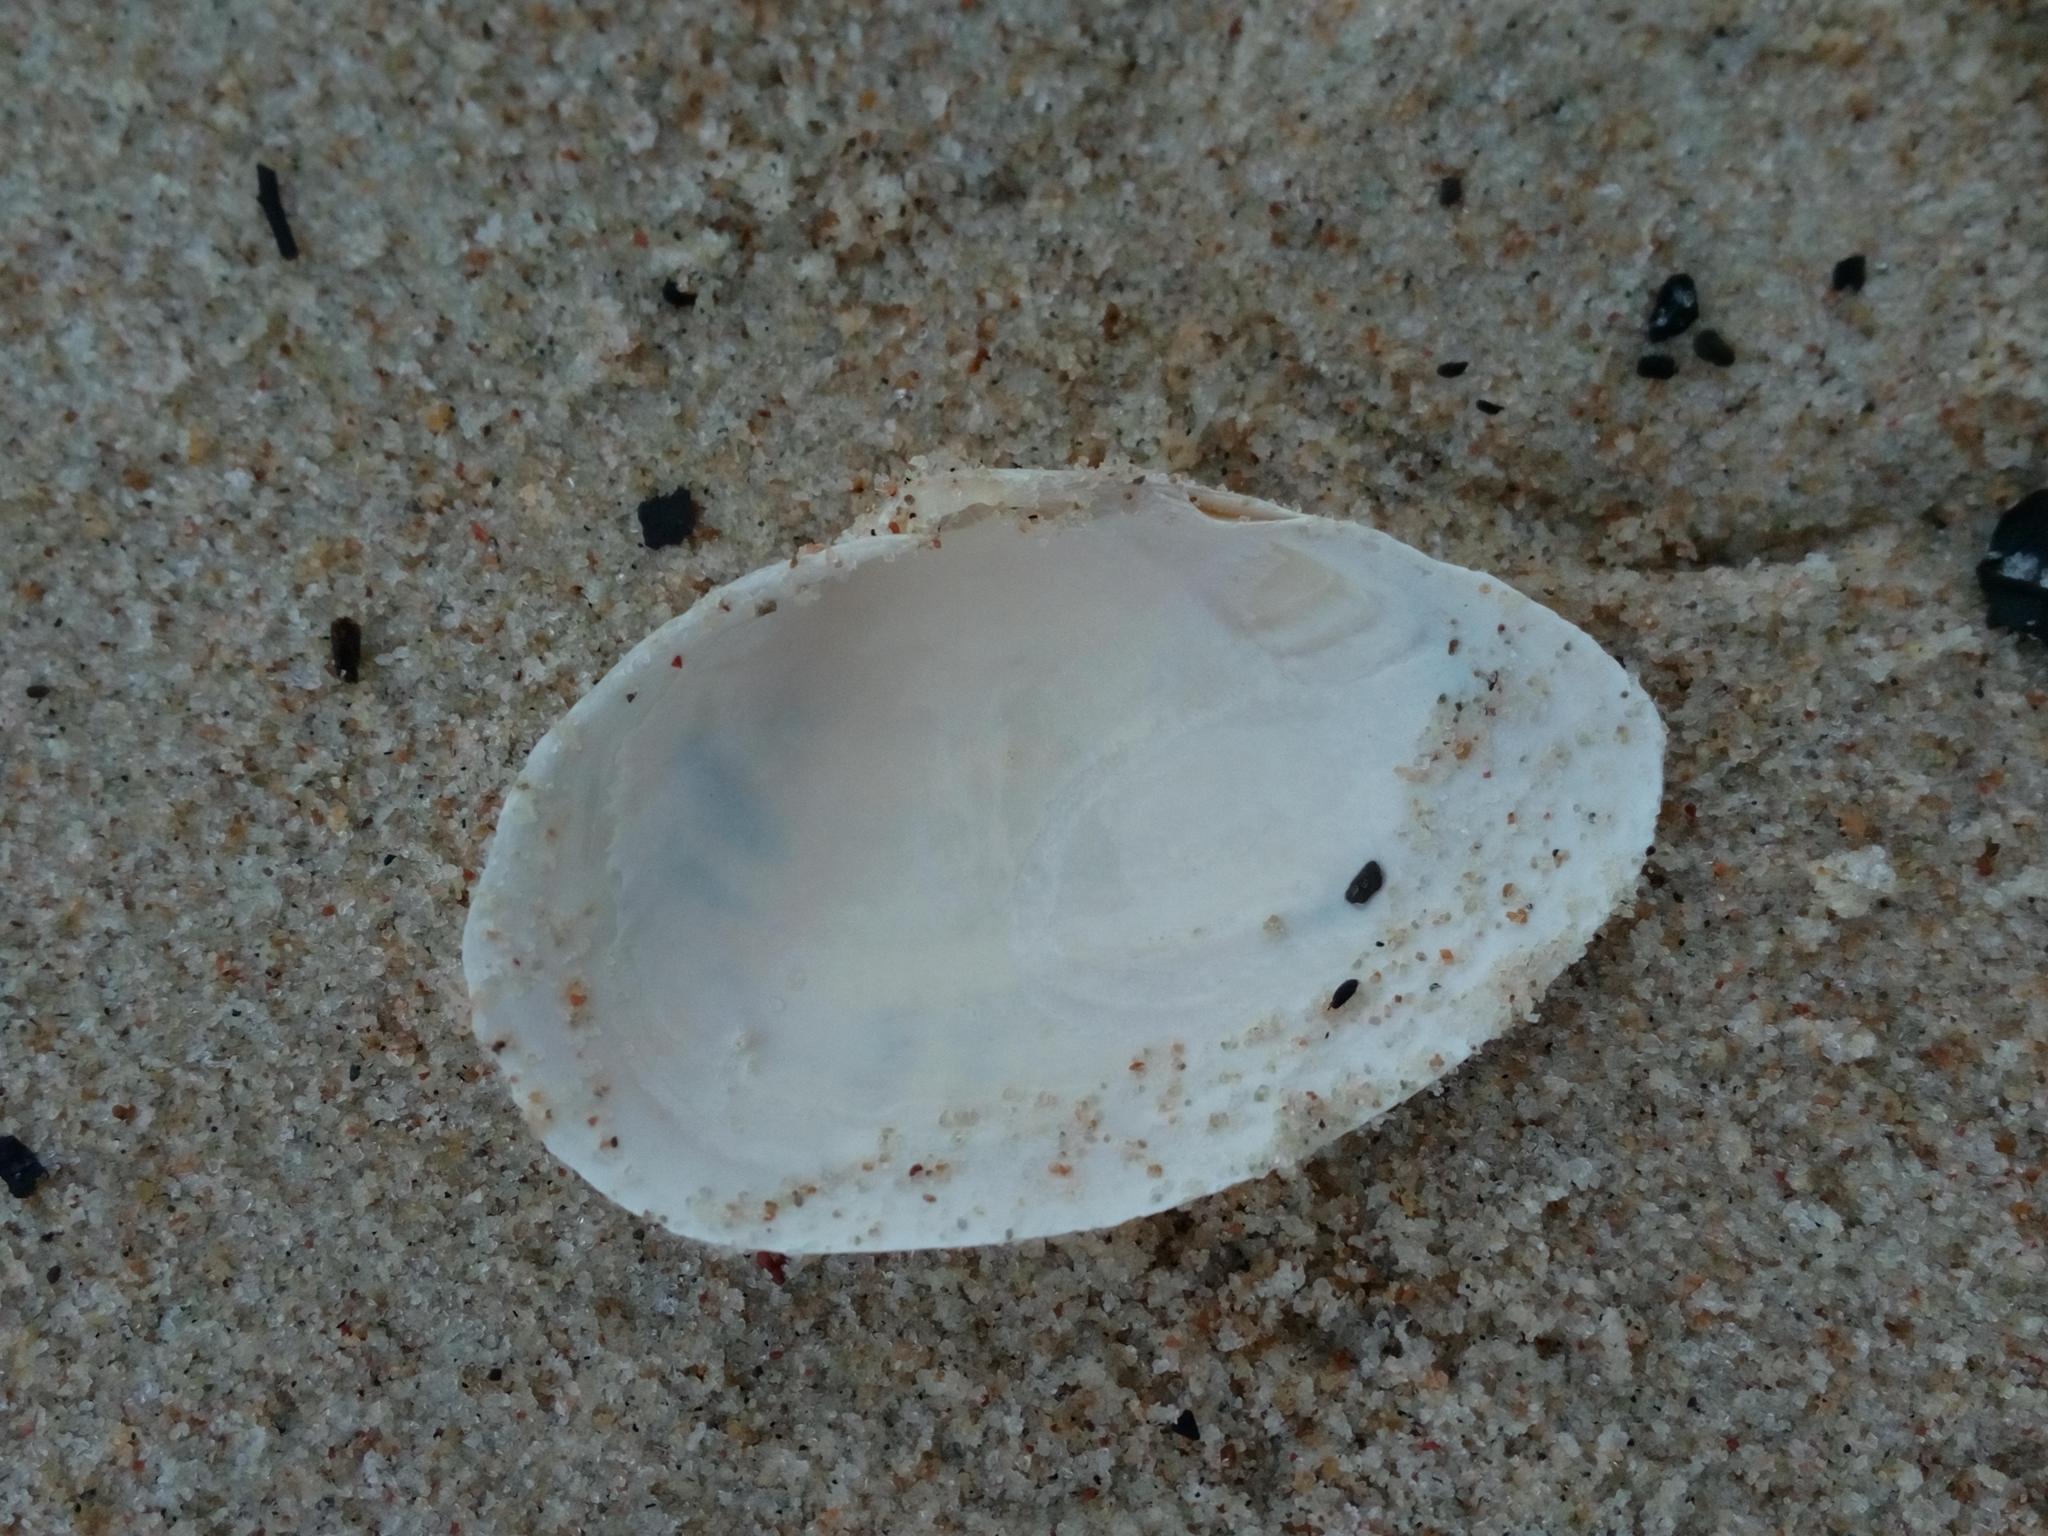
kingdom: Animalia
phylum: Mollusca
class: Bivalvia
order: Myida
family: Myidae
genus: Mya
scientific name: Mya arenaria
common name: Soft-shelled clam
